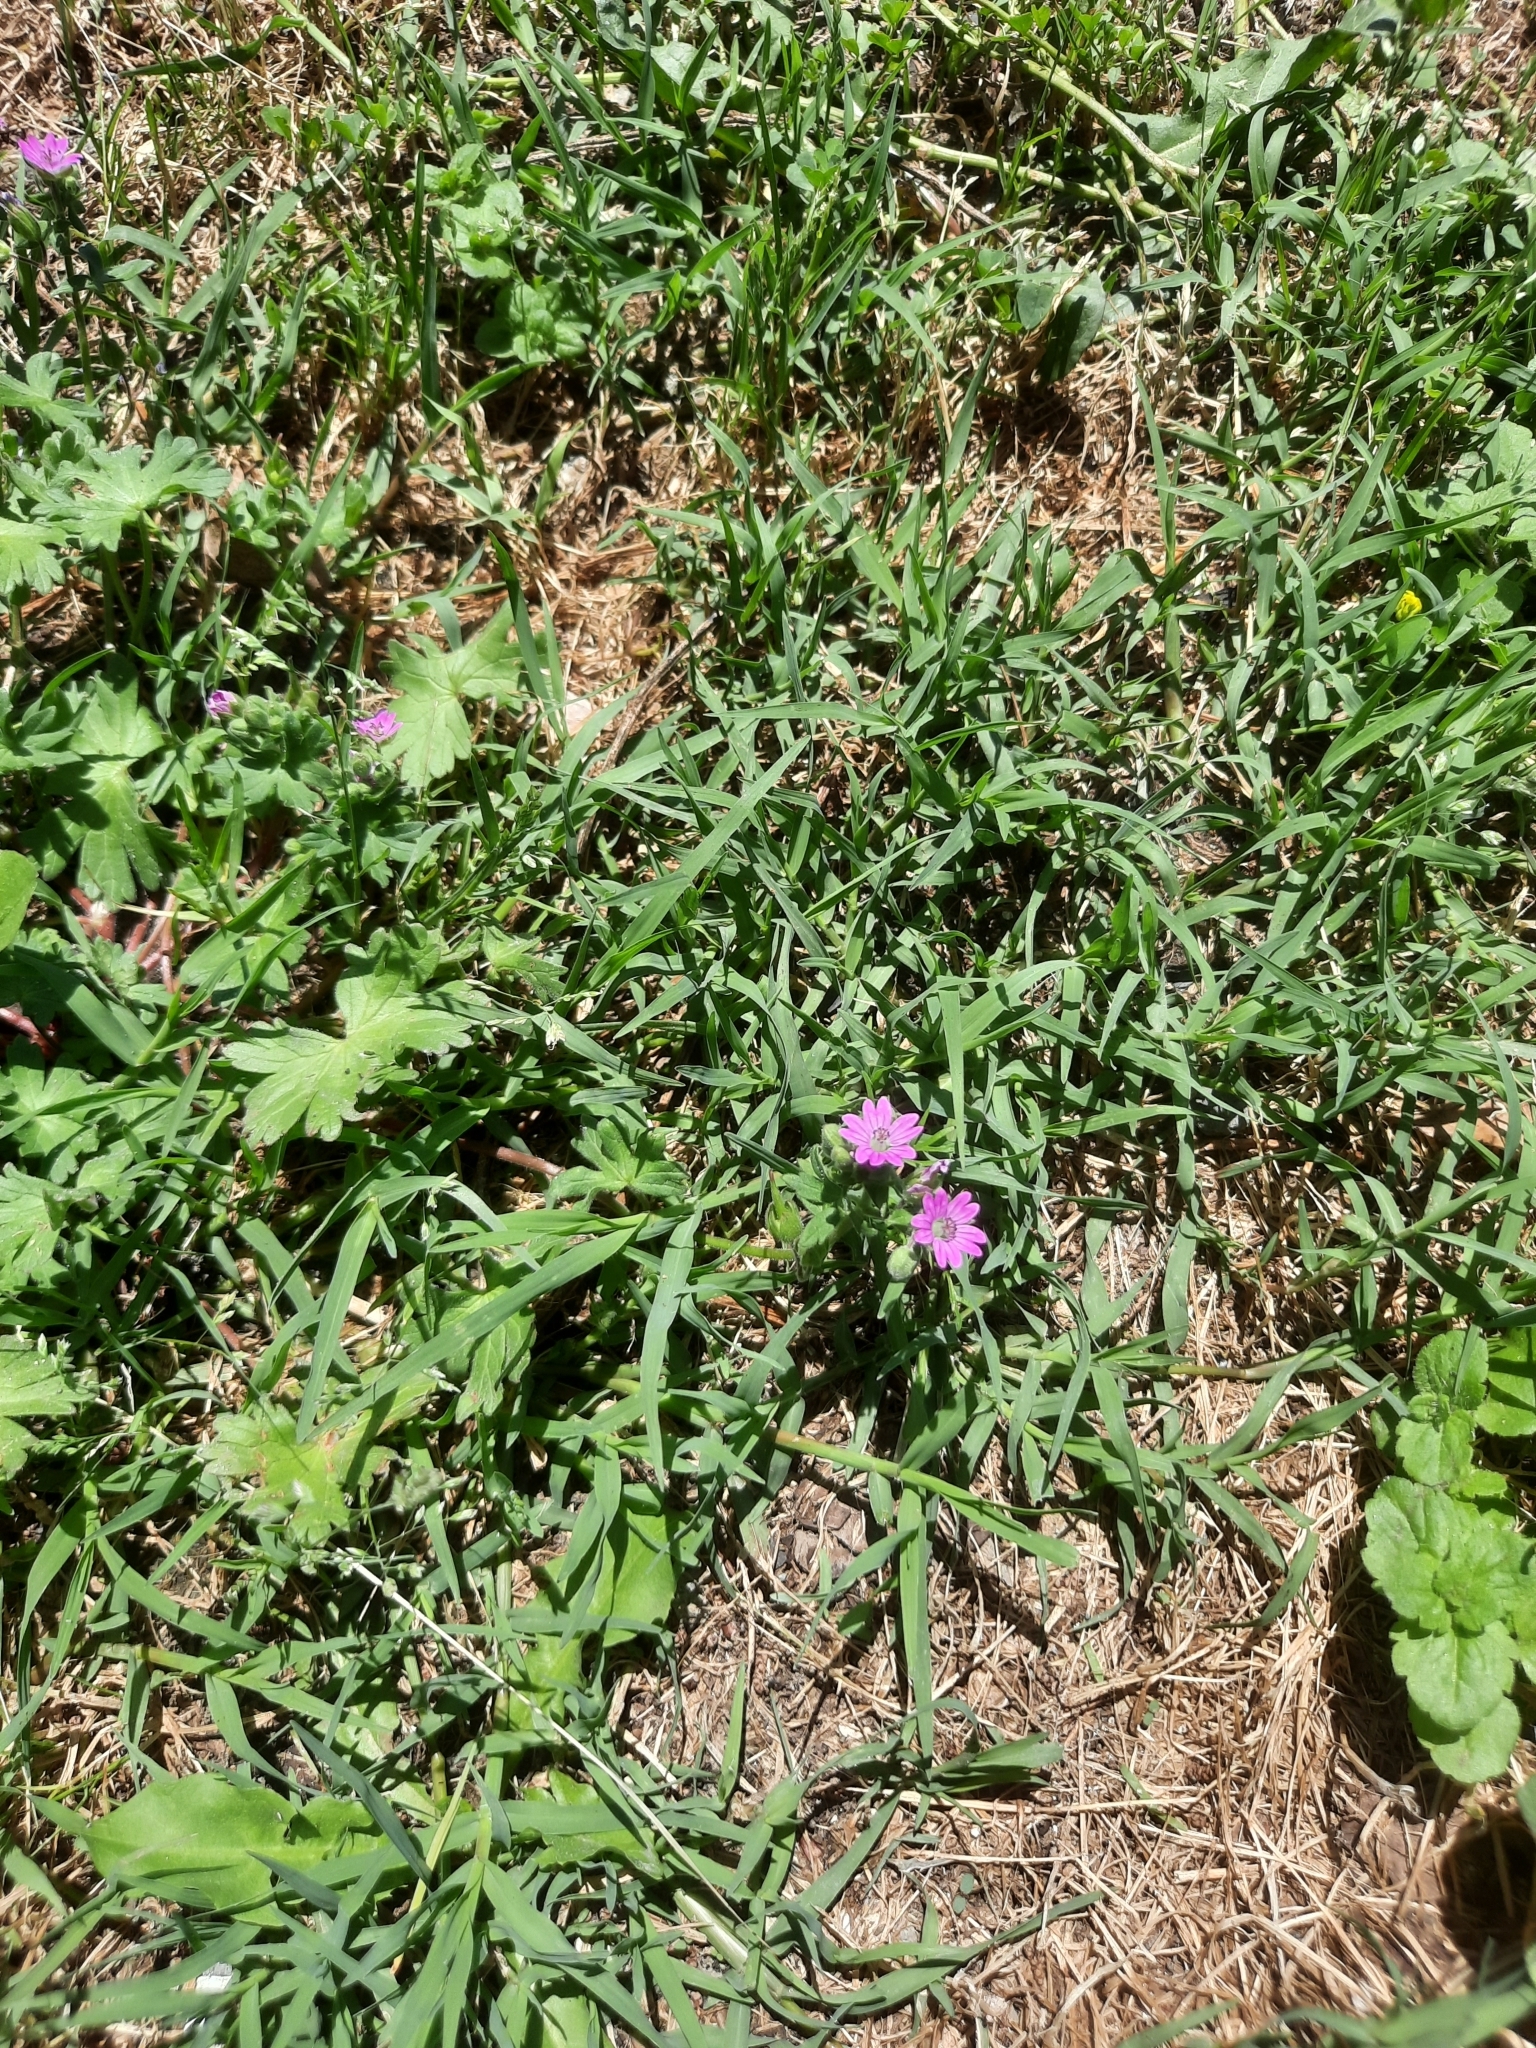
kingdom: Plantae
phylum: Tracheophyta
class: Magnoliopsida
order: Geraniales
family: Geraniaceae
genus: Geranium
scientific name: Geranium molle
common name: Dove's-foot crane's-bill
